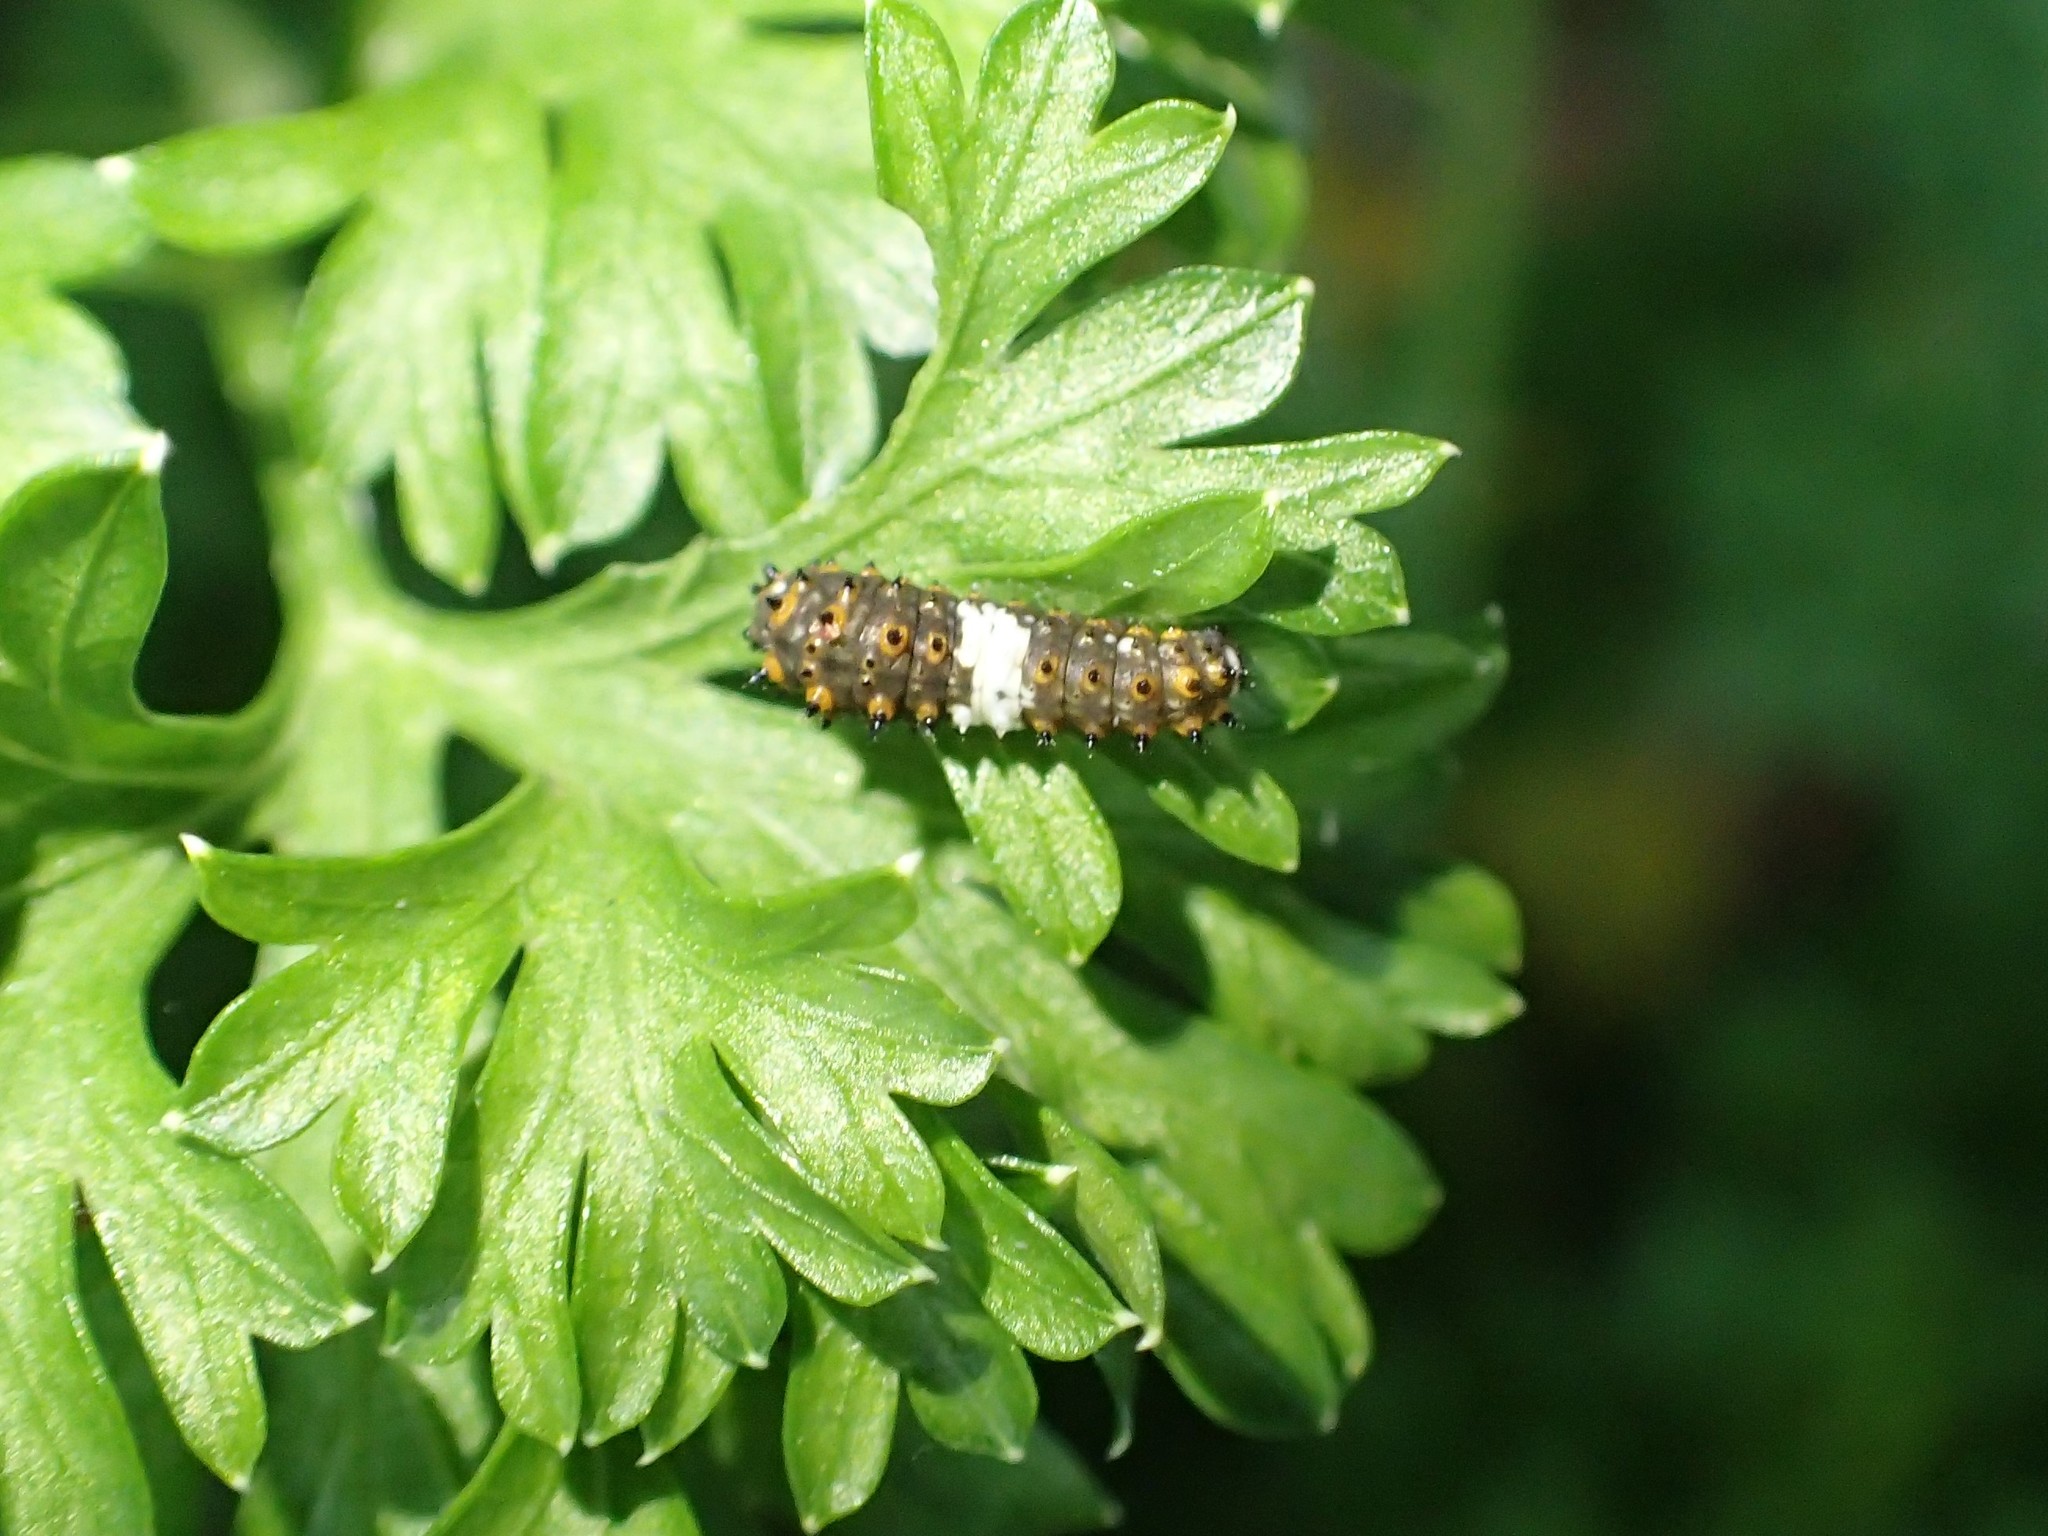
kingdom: Animalia
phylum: Arthropoda
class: Insecta
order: Lepidoptera
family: Papilionidae
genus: Papilio
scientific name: Papilio polyxenes
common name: Black swallowtail
